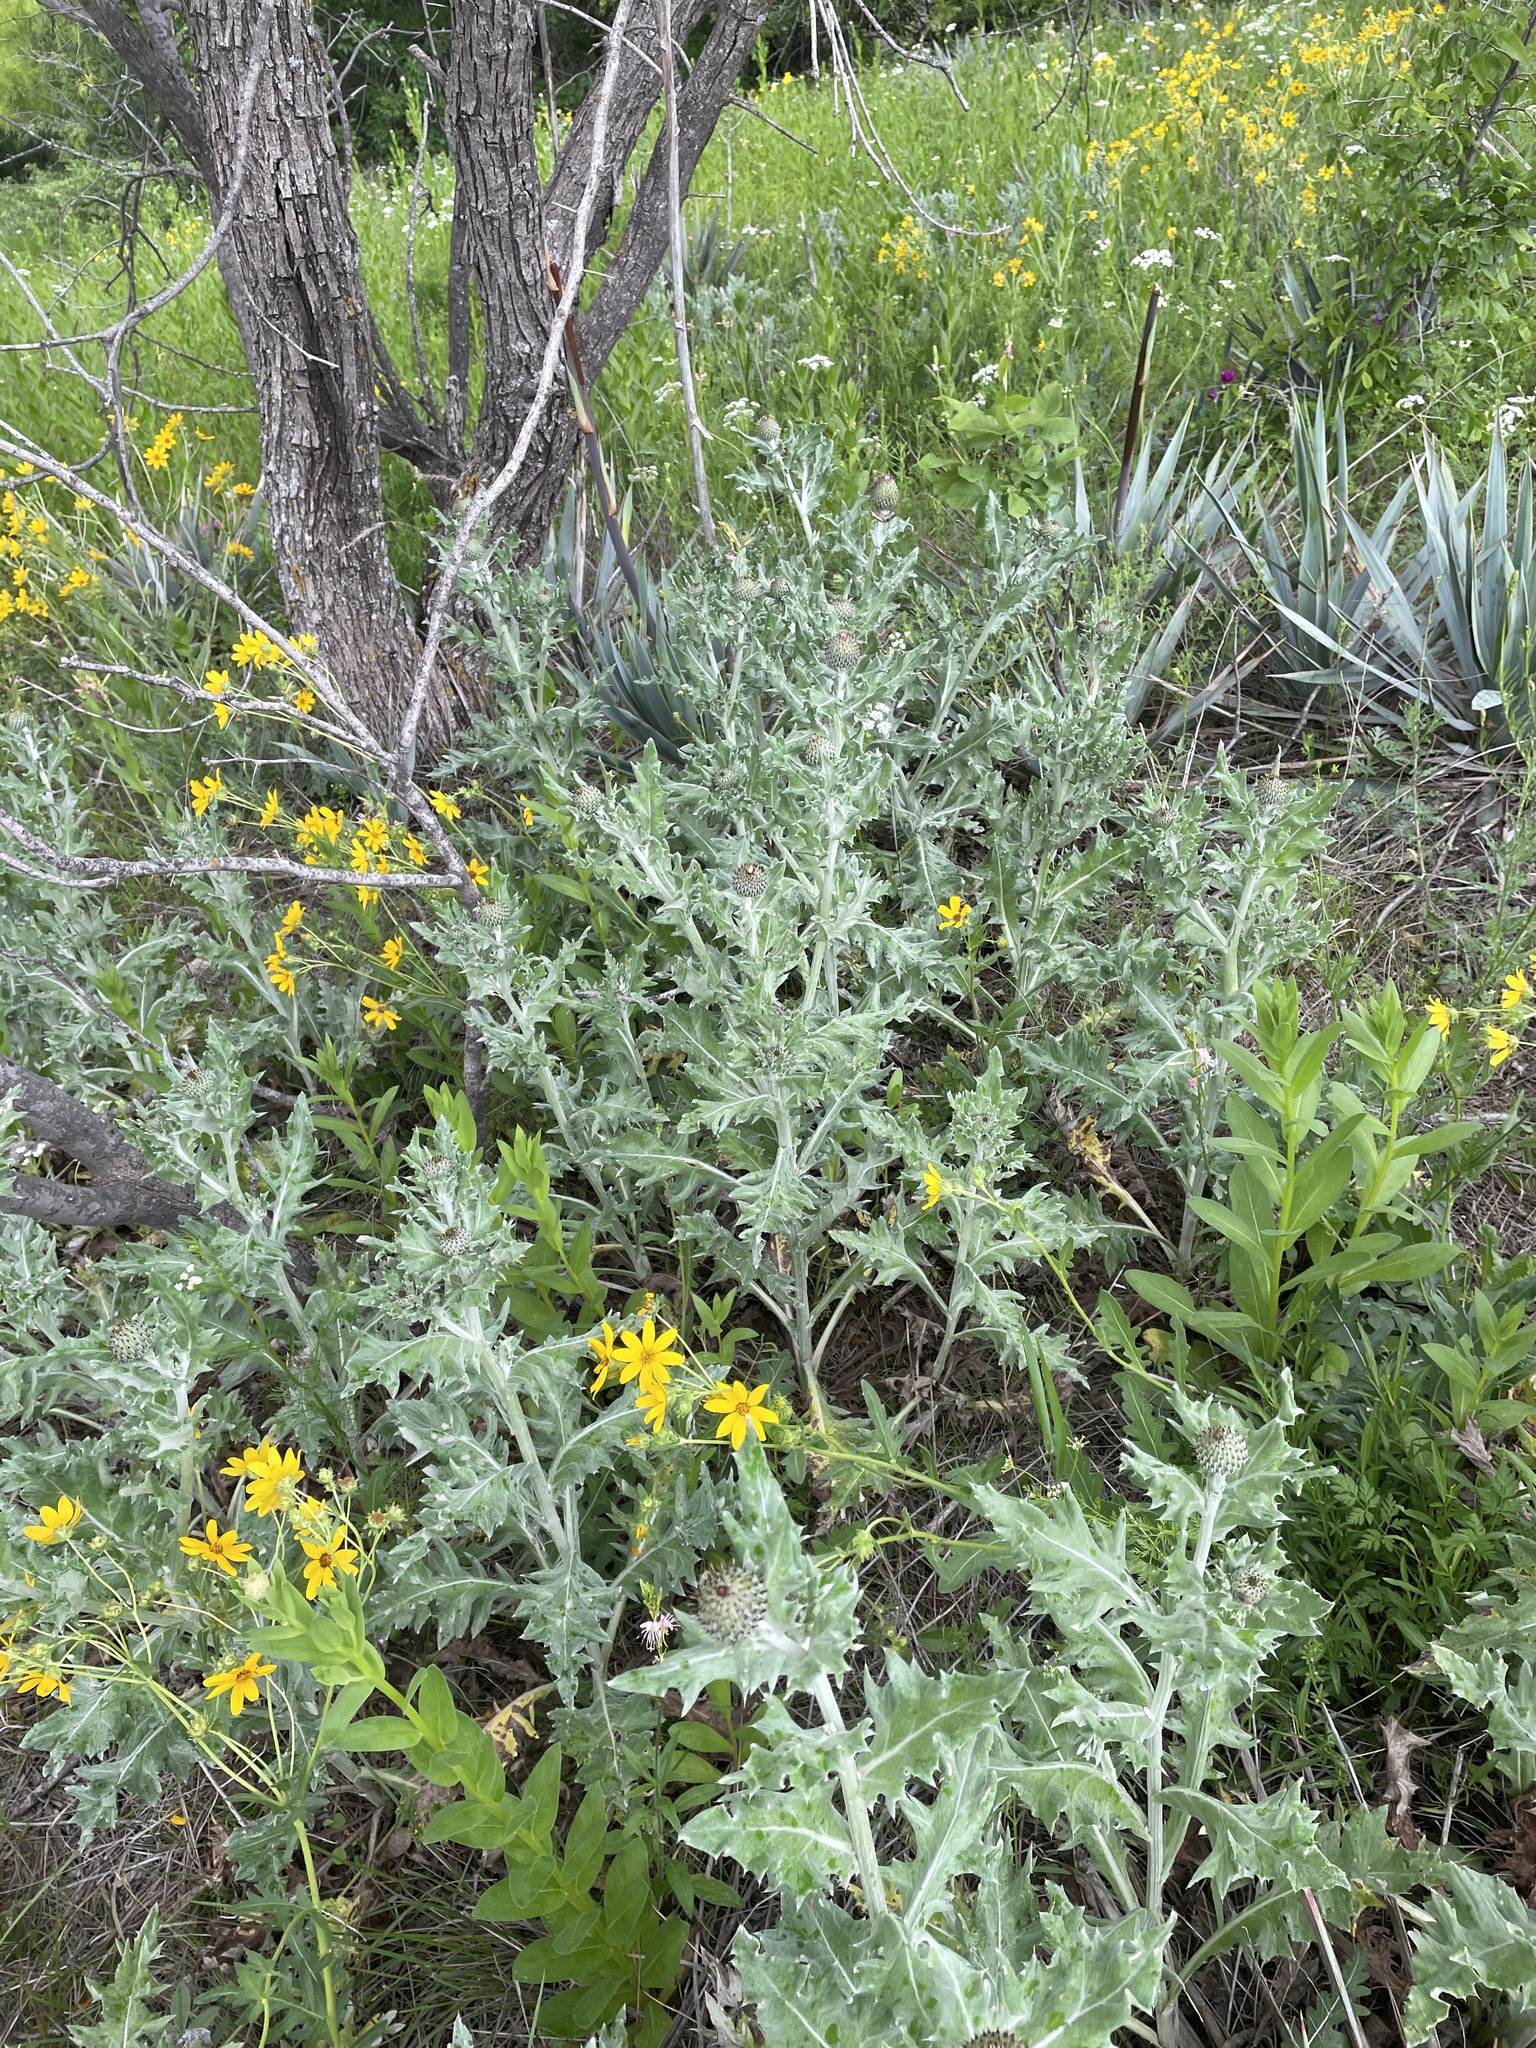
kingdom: Plantae
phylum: Tracheophyta
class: Magnoliopsida
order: Asterales
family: Asteraceae
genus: Cirsium
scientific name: Cirsium undulatum
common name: Pasture thistle
